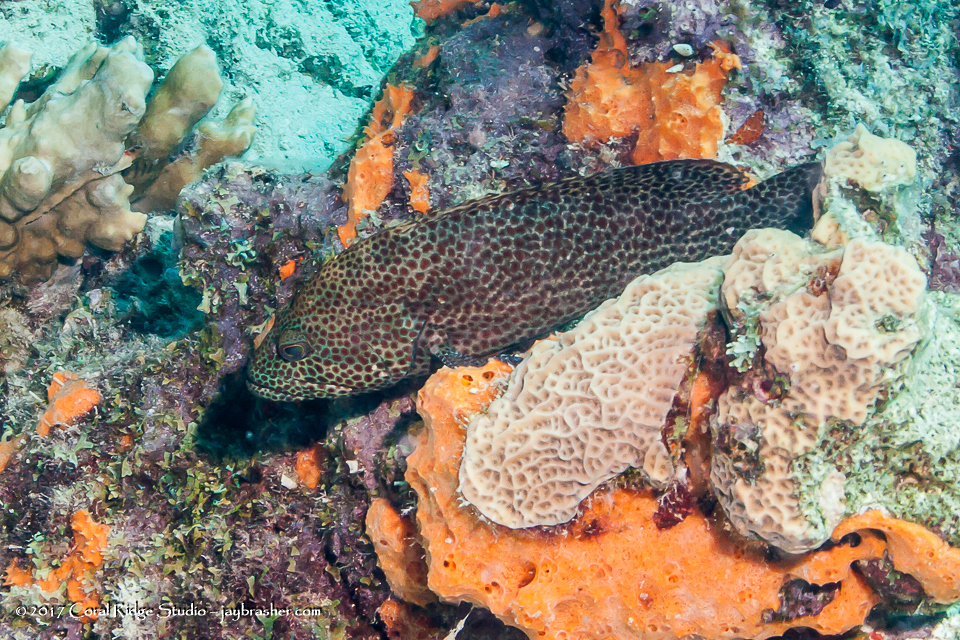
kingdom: Animalia
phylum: Chordata
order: Perciformes
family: Serranidae
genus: Cephalopholis
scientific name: Cephalopholis cruentata
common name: Graysby
